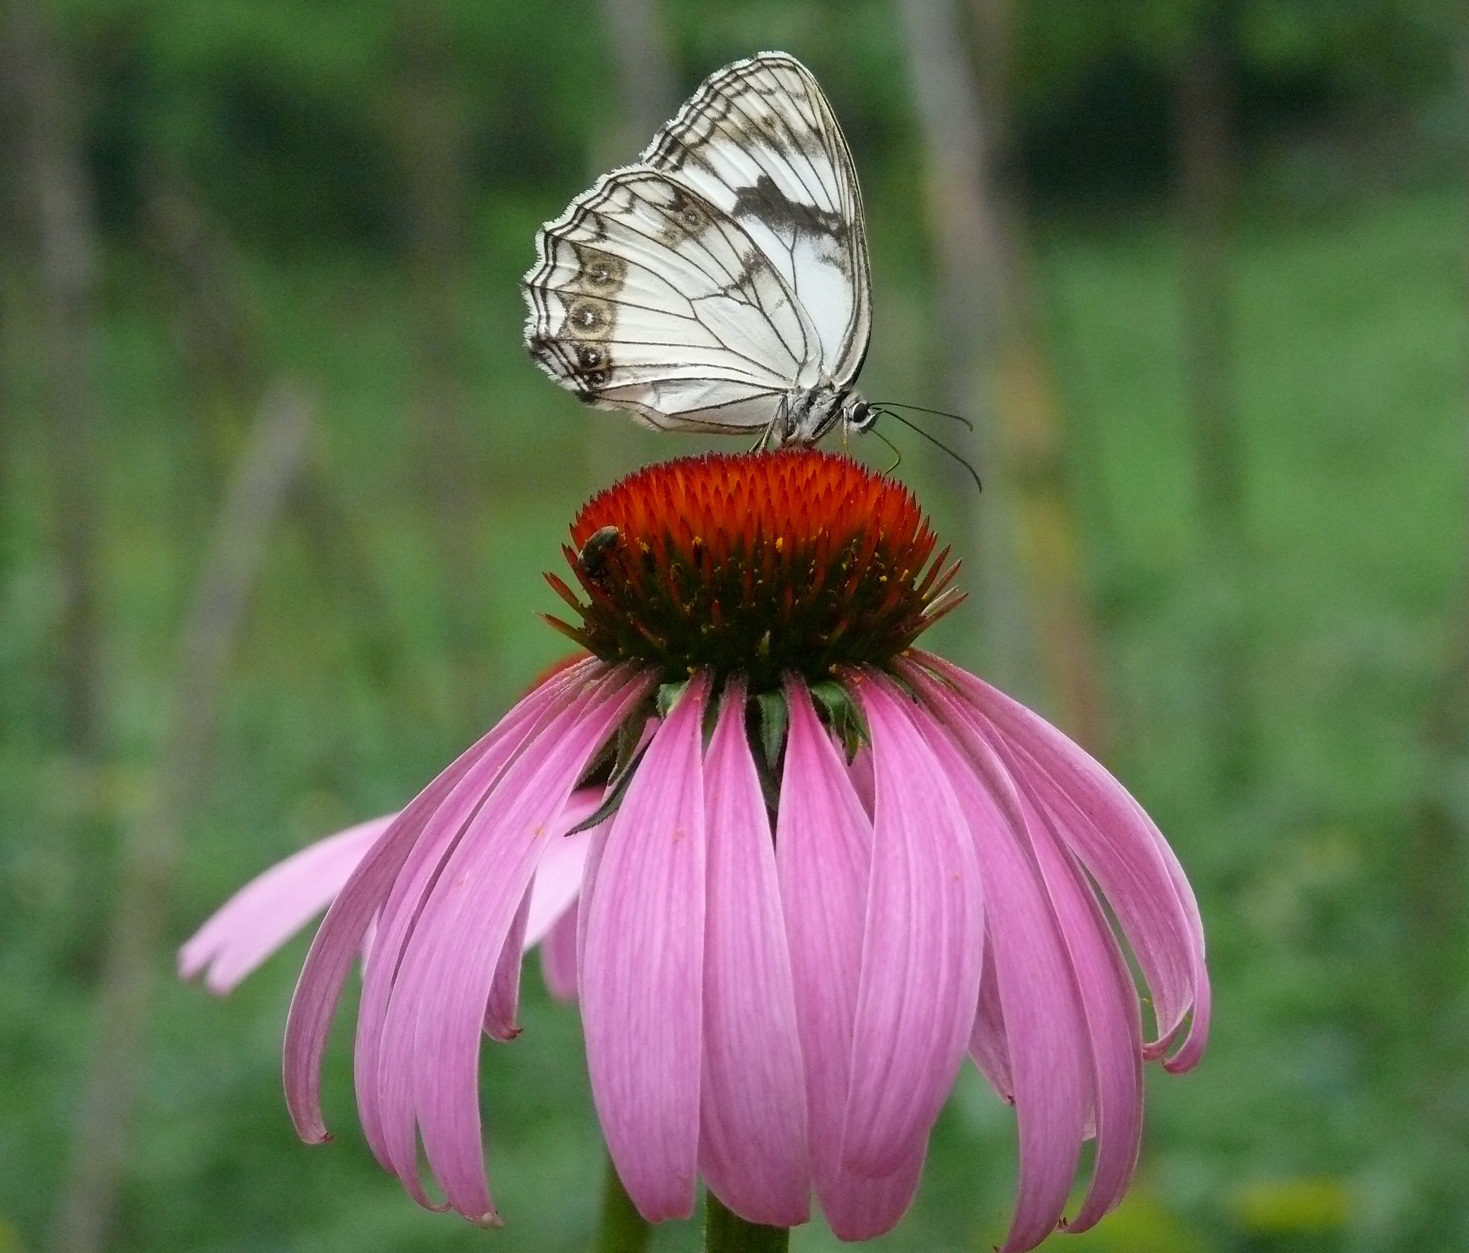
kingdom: Animalia
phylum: Arthropoda
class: Insecta
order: Lepidoptera
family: Nymphalidae
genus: Melanargia
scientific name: Melanargia halimede
